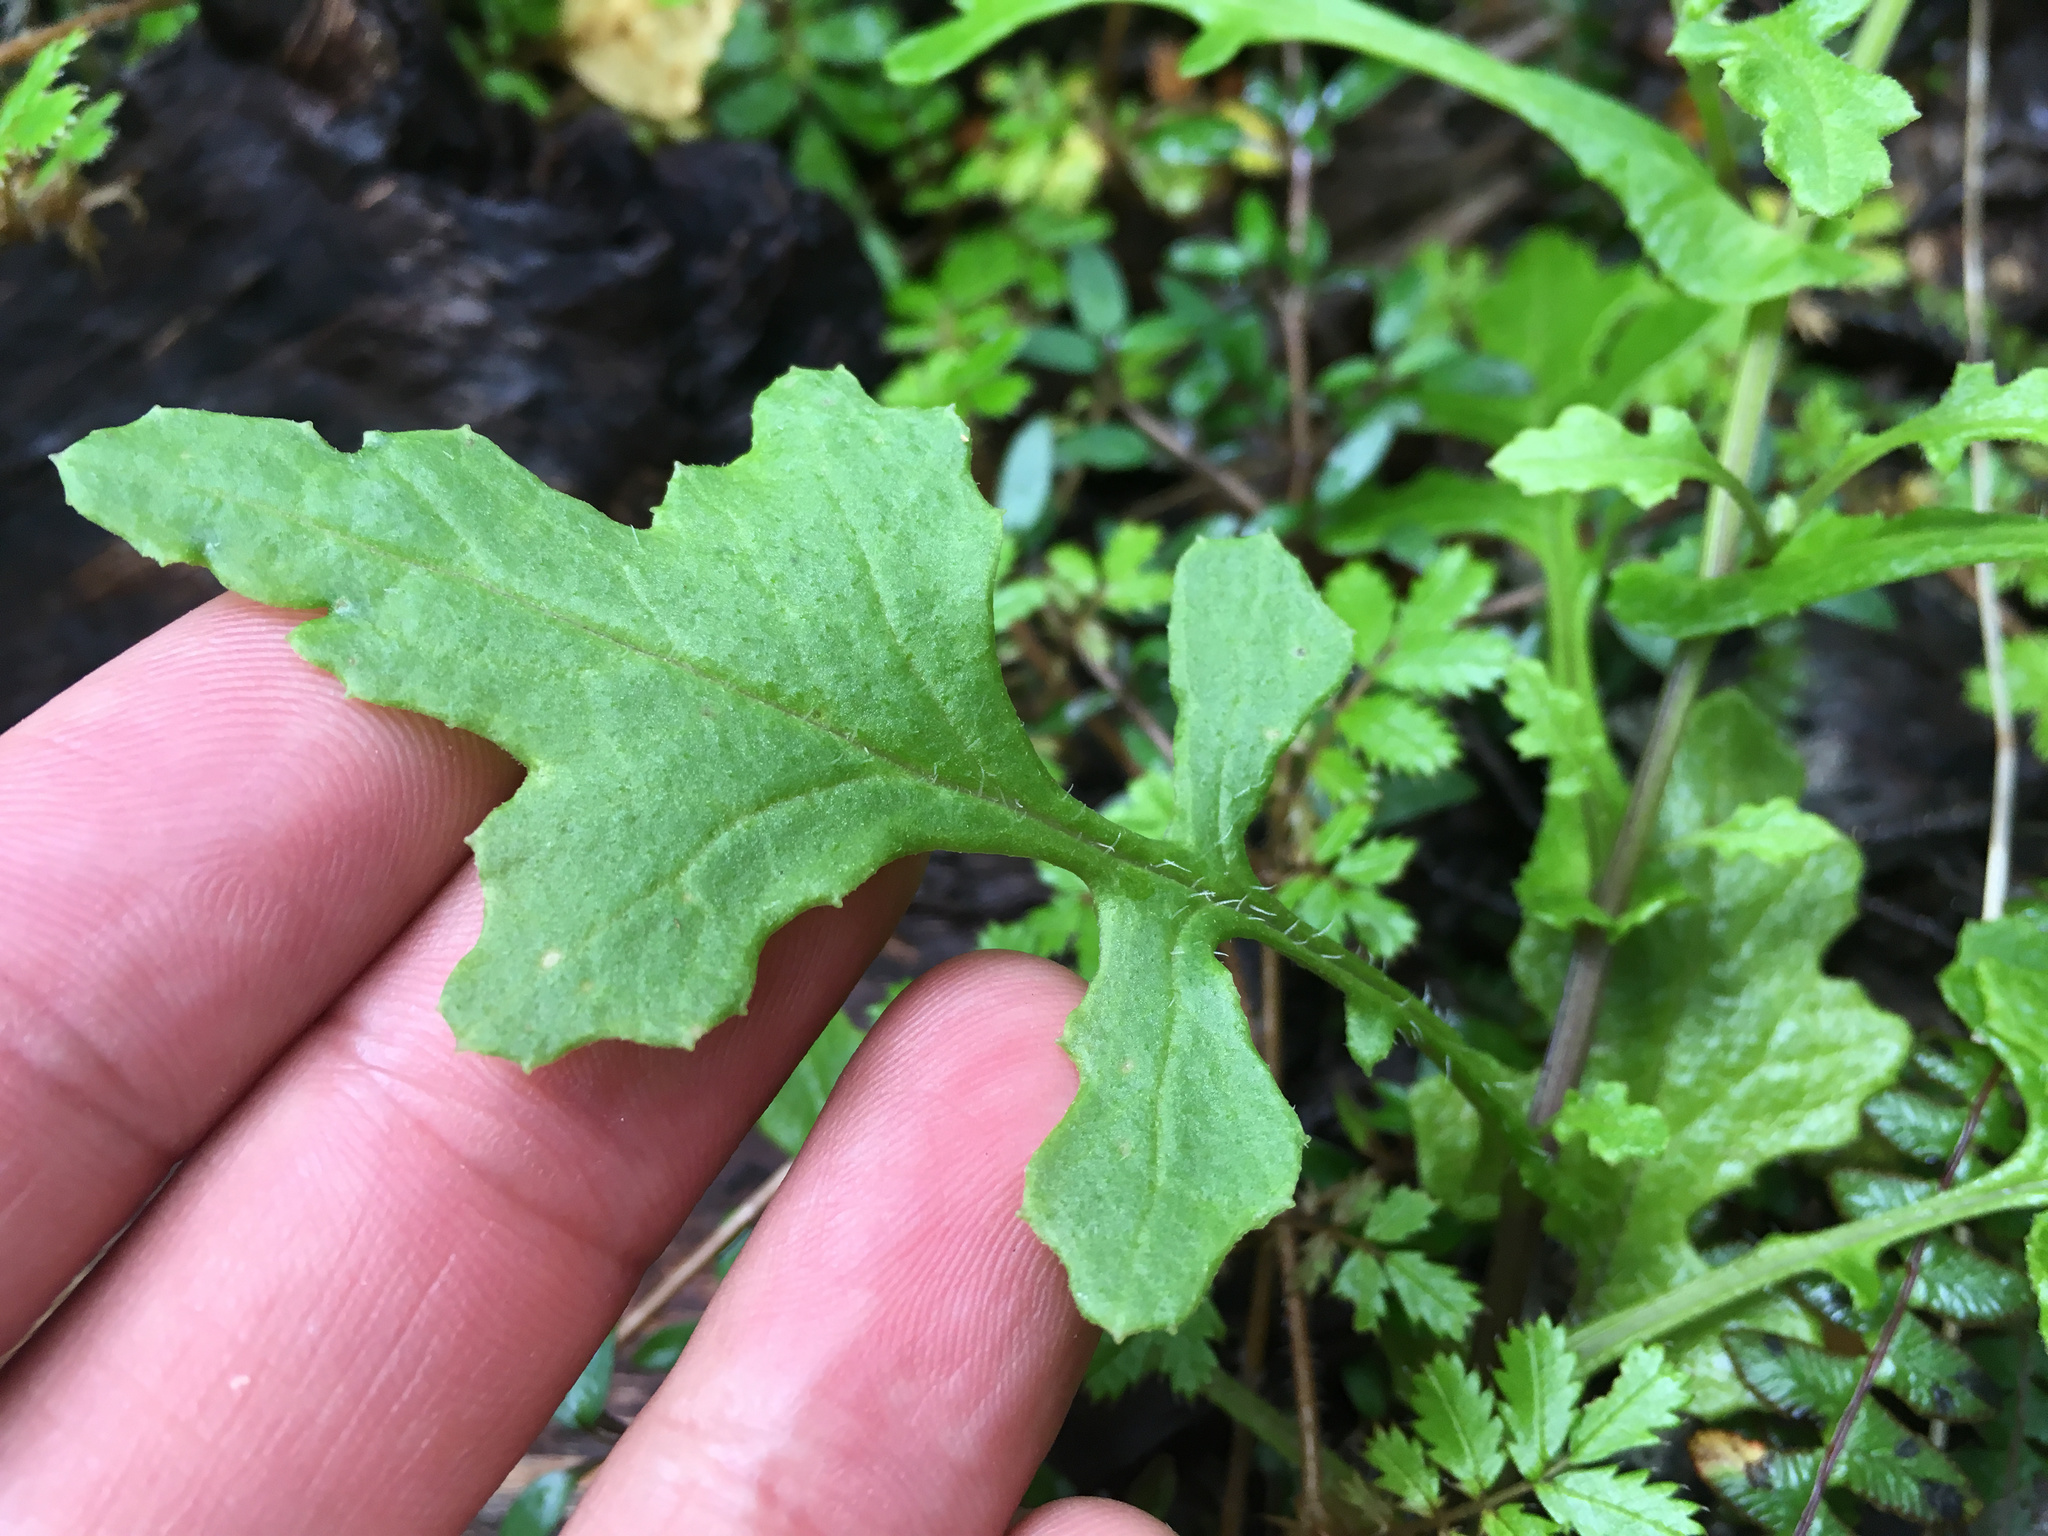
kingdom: Plantae
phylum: Tracheophyta
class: Magnoliopsida
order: Asterales
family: Asteraceae
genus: Senecio
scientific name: Senecio wairauensis
